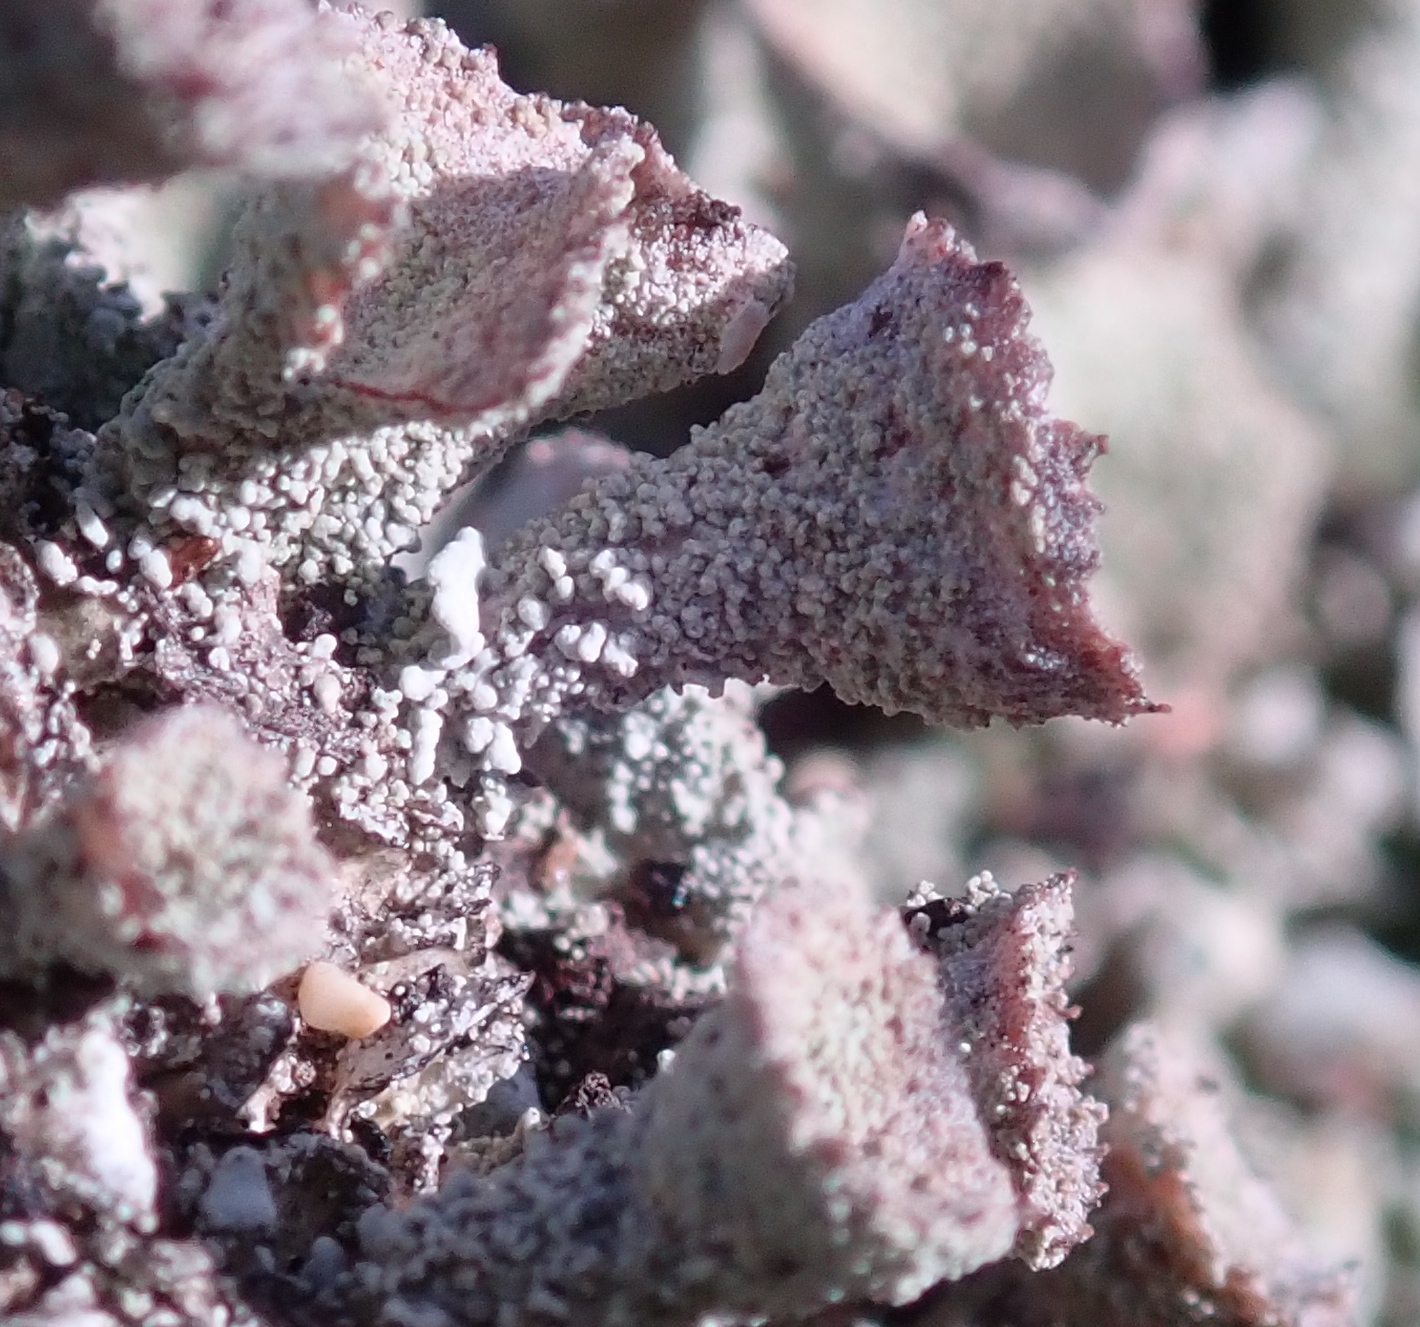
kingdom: Fungi
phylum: Ascomycota
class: Lecanoromycetes
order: Lecanorales
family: Cladoniaceae
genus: Cladonia
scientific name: Cladonia carneola
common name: Crowned pixie-cup
